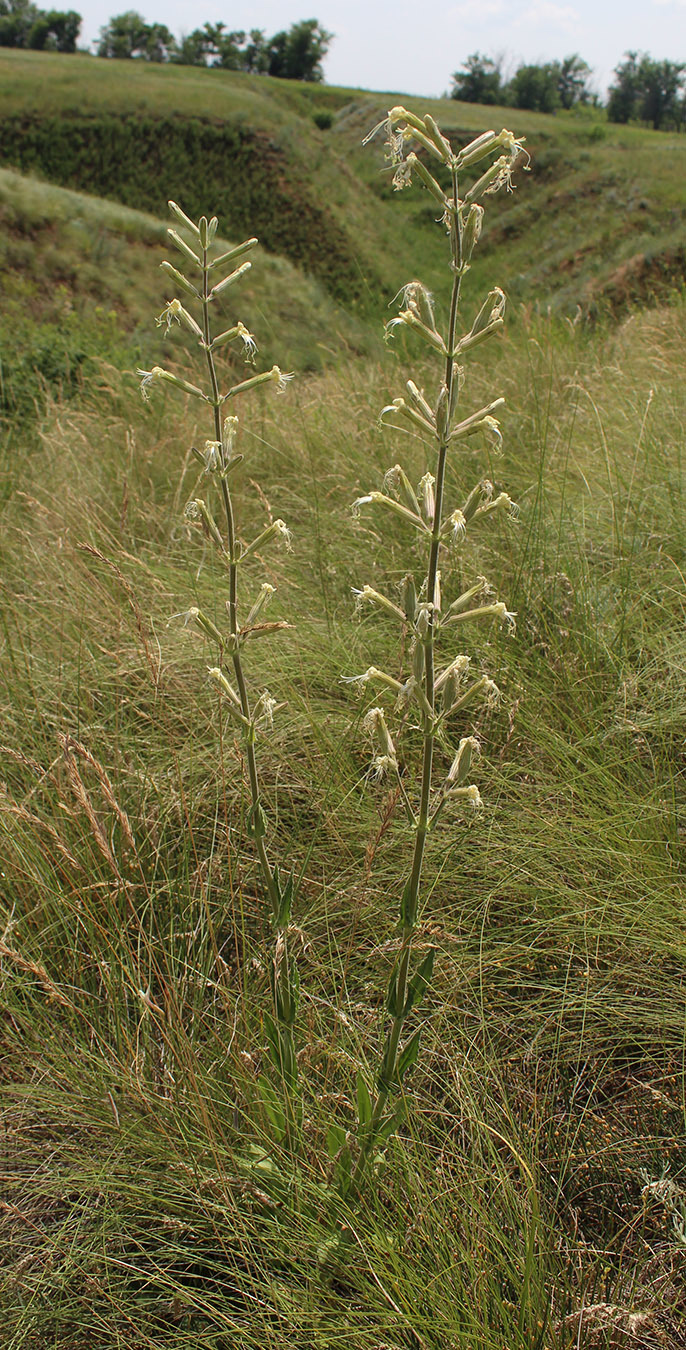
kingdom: Plantae
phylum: Tracheophyta
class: Magnoliopsida
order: Caryophyllales
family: Caryophyllaceae
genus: Silene
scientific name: Silene viscosa
